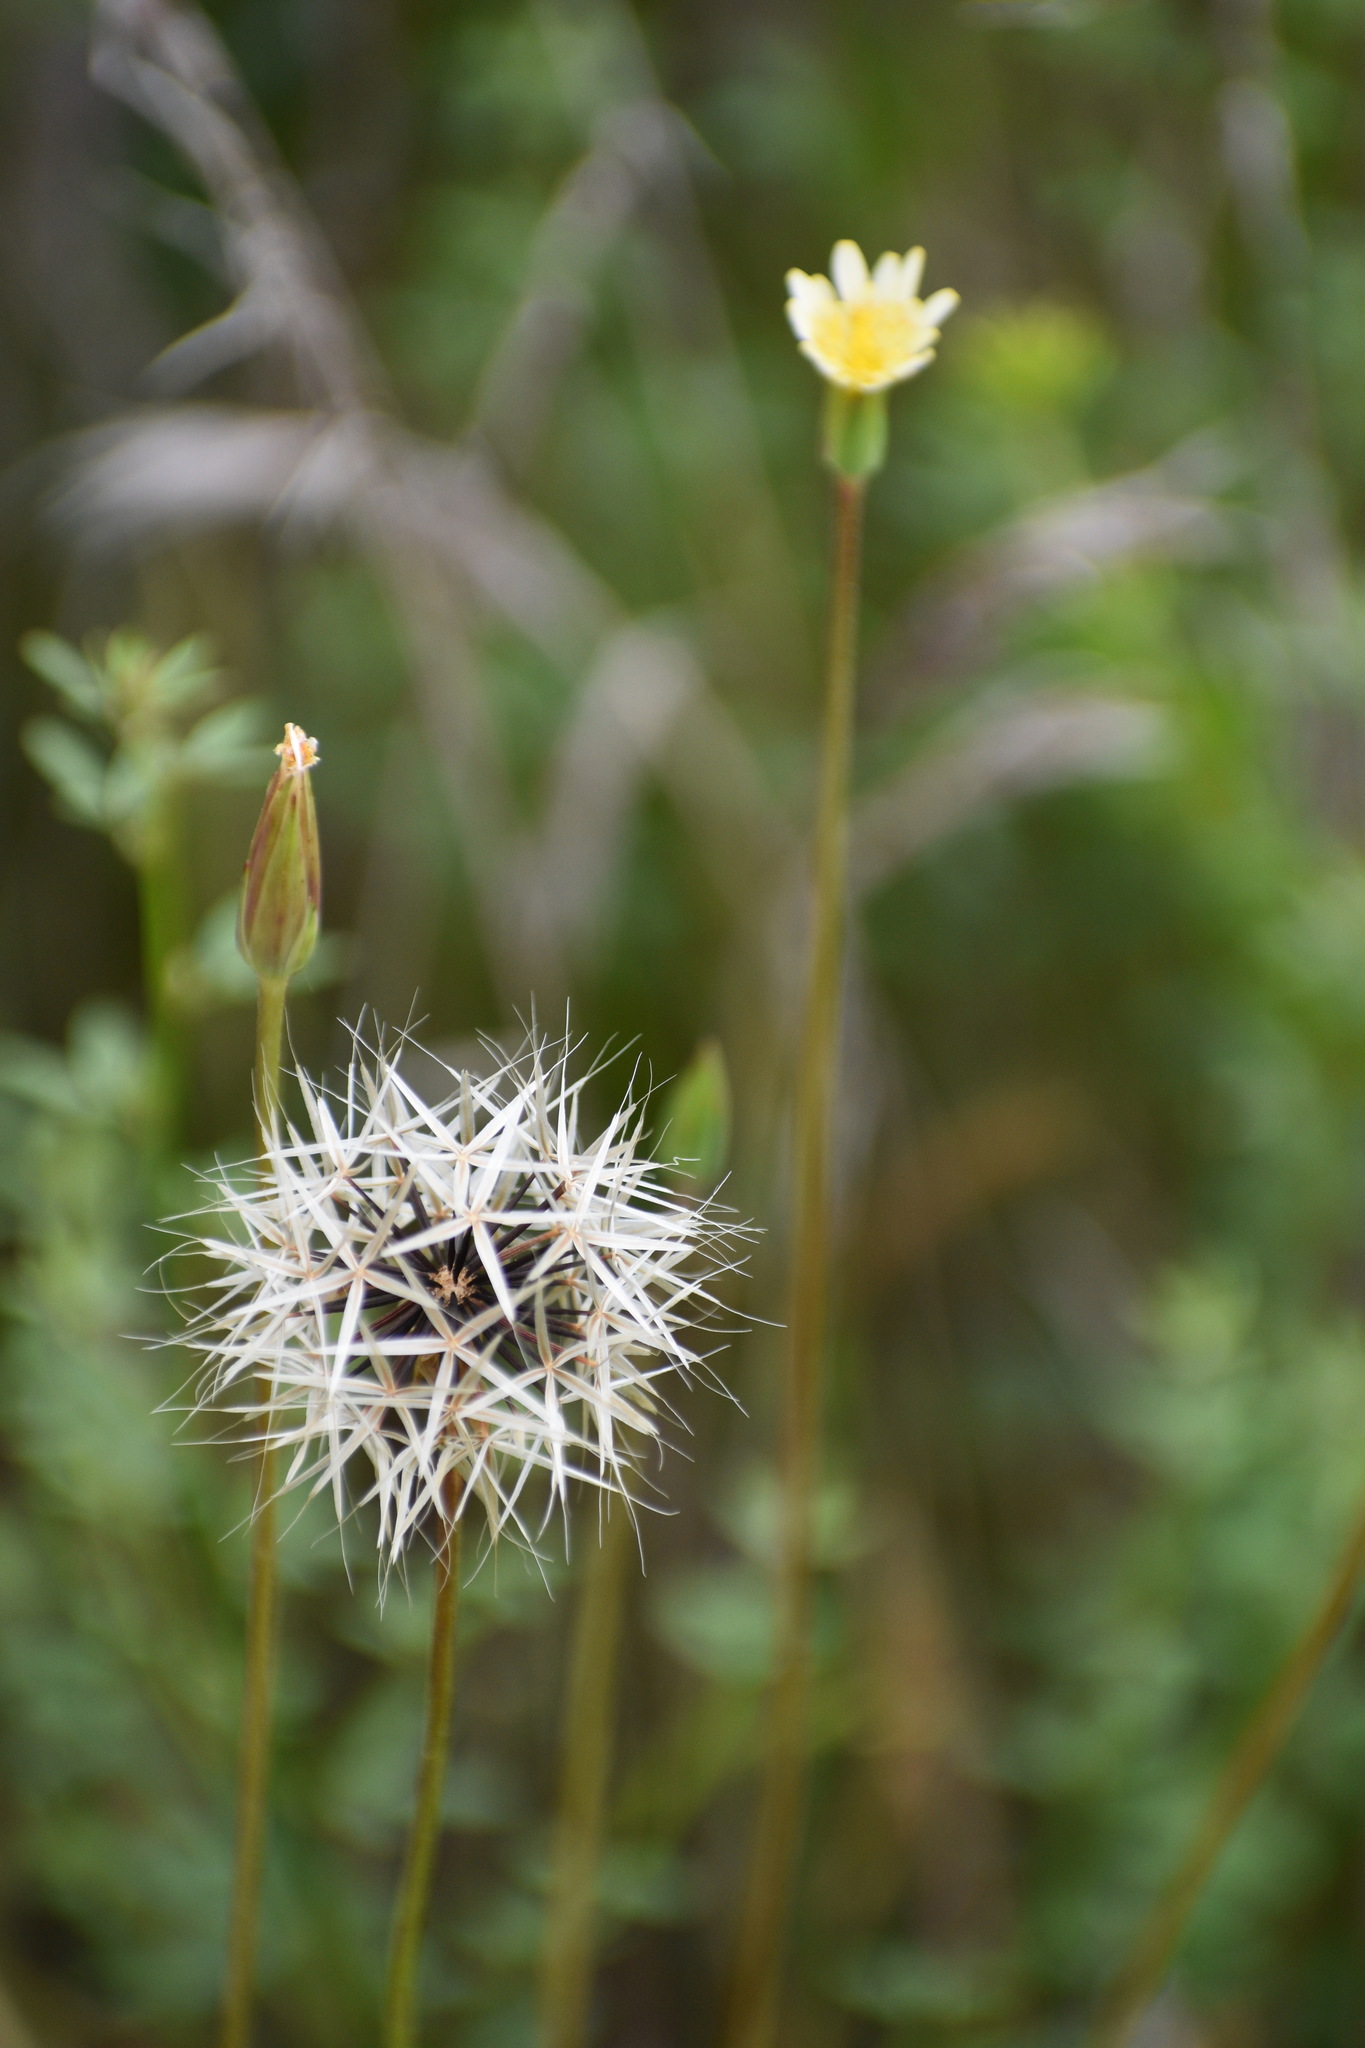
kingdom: Plantae
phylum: Tracheophyta
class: Magnoliopsida
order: Asterales
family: Asteraceae
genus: Microseris
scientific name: Microseris lindleyi
